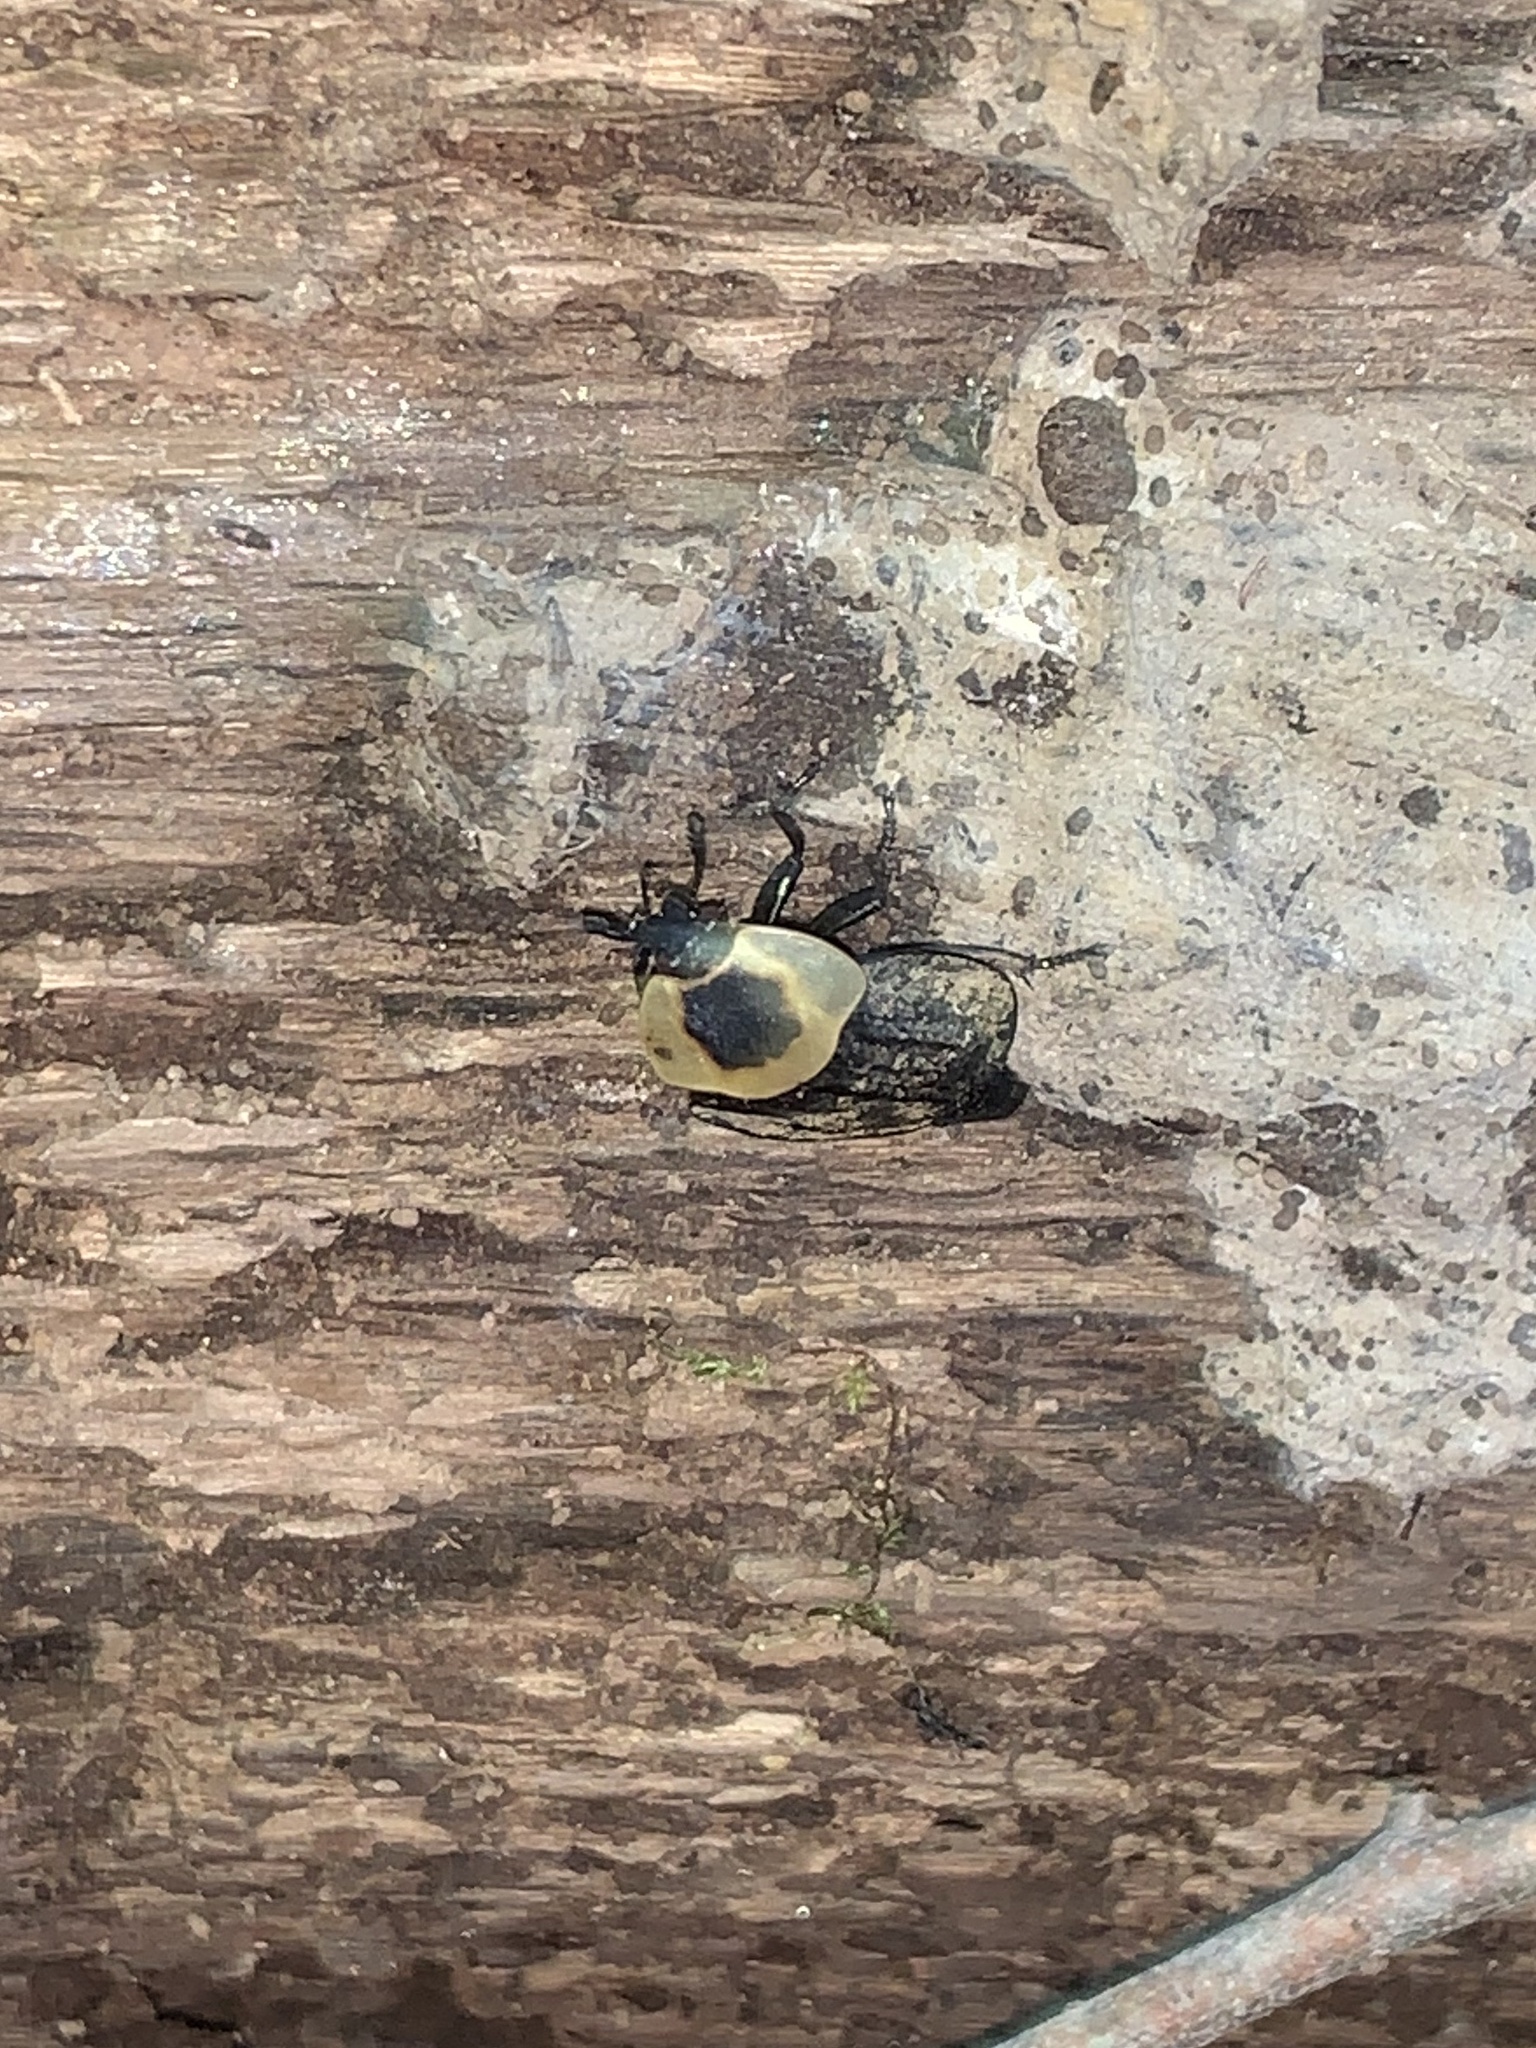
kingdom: Animalia
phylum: Arthropoda
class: Insecta
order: Coleoptera
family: Staphylinidae
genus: Necrophila
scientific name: Necrophila americana
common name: American carrion beetle
